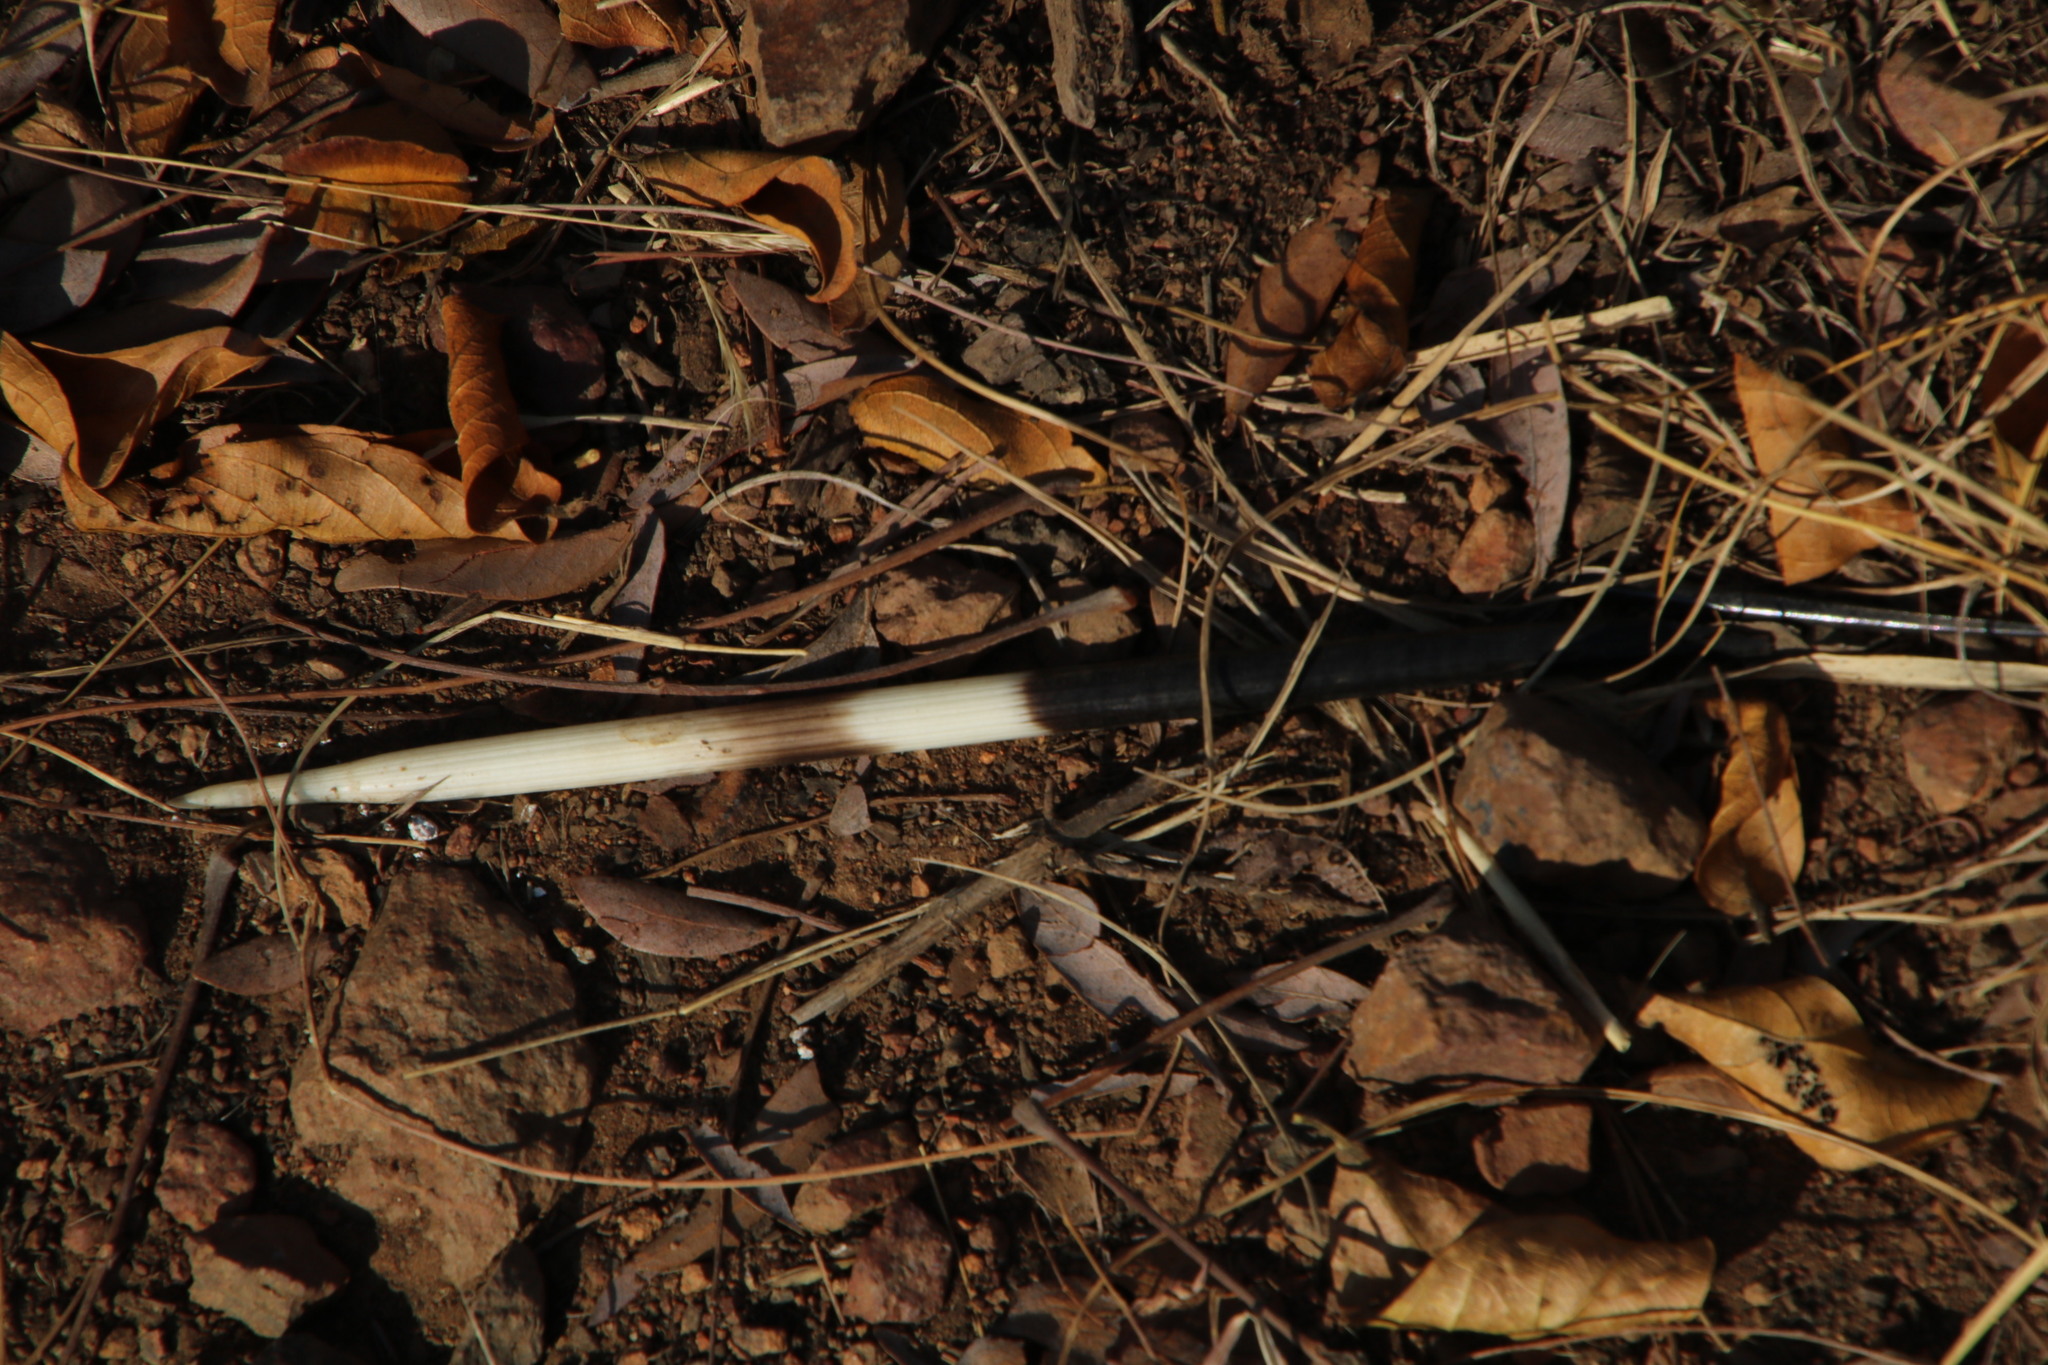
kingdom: Animalia
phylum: Chordata
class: Mammalia
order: Rodentia
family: Hystricidae
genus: Hystrix
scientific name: Hystrix africaeaustralis
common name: Cape porcupine
